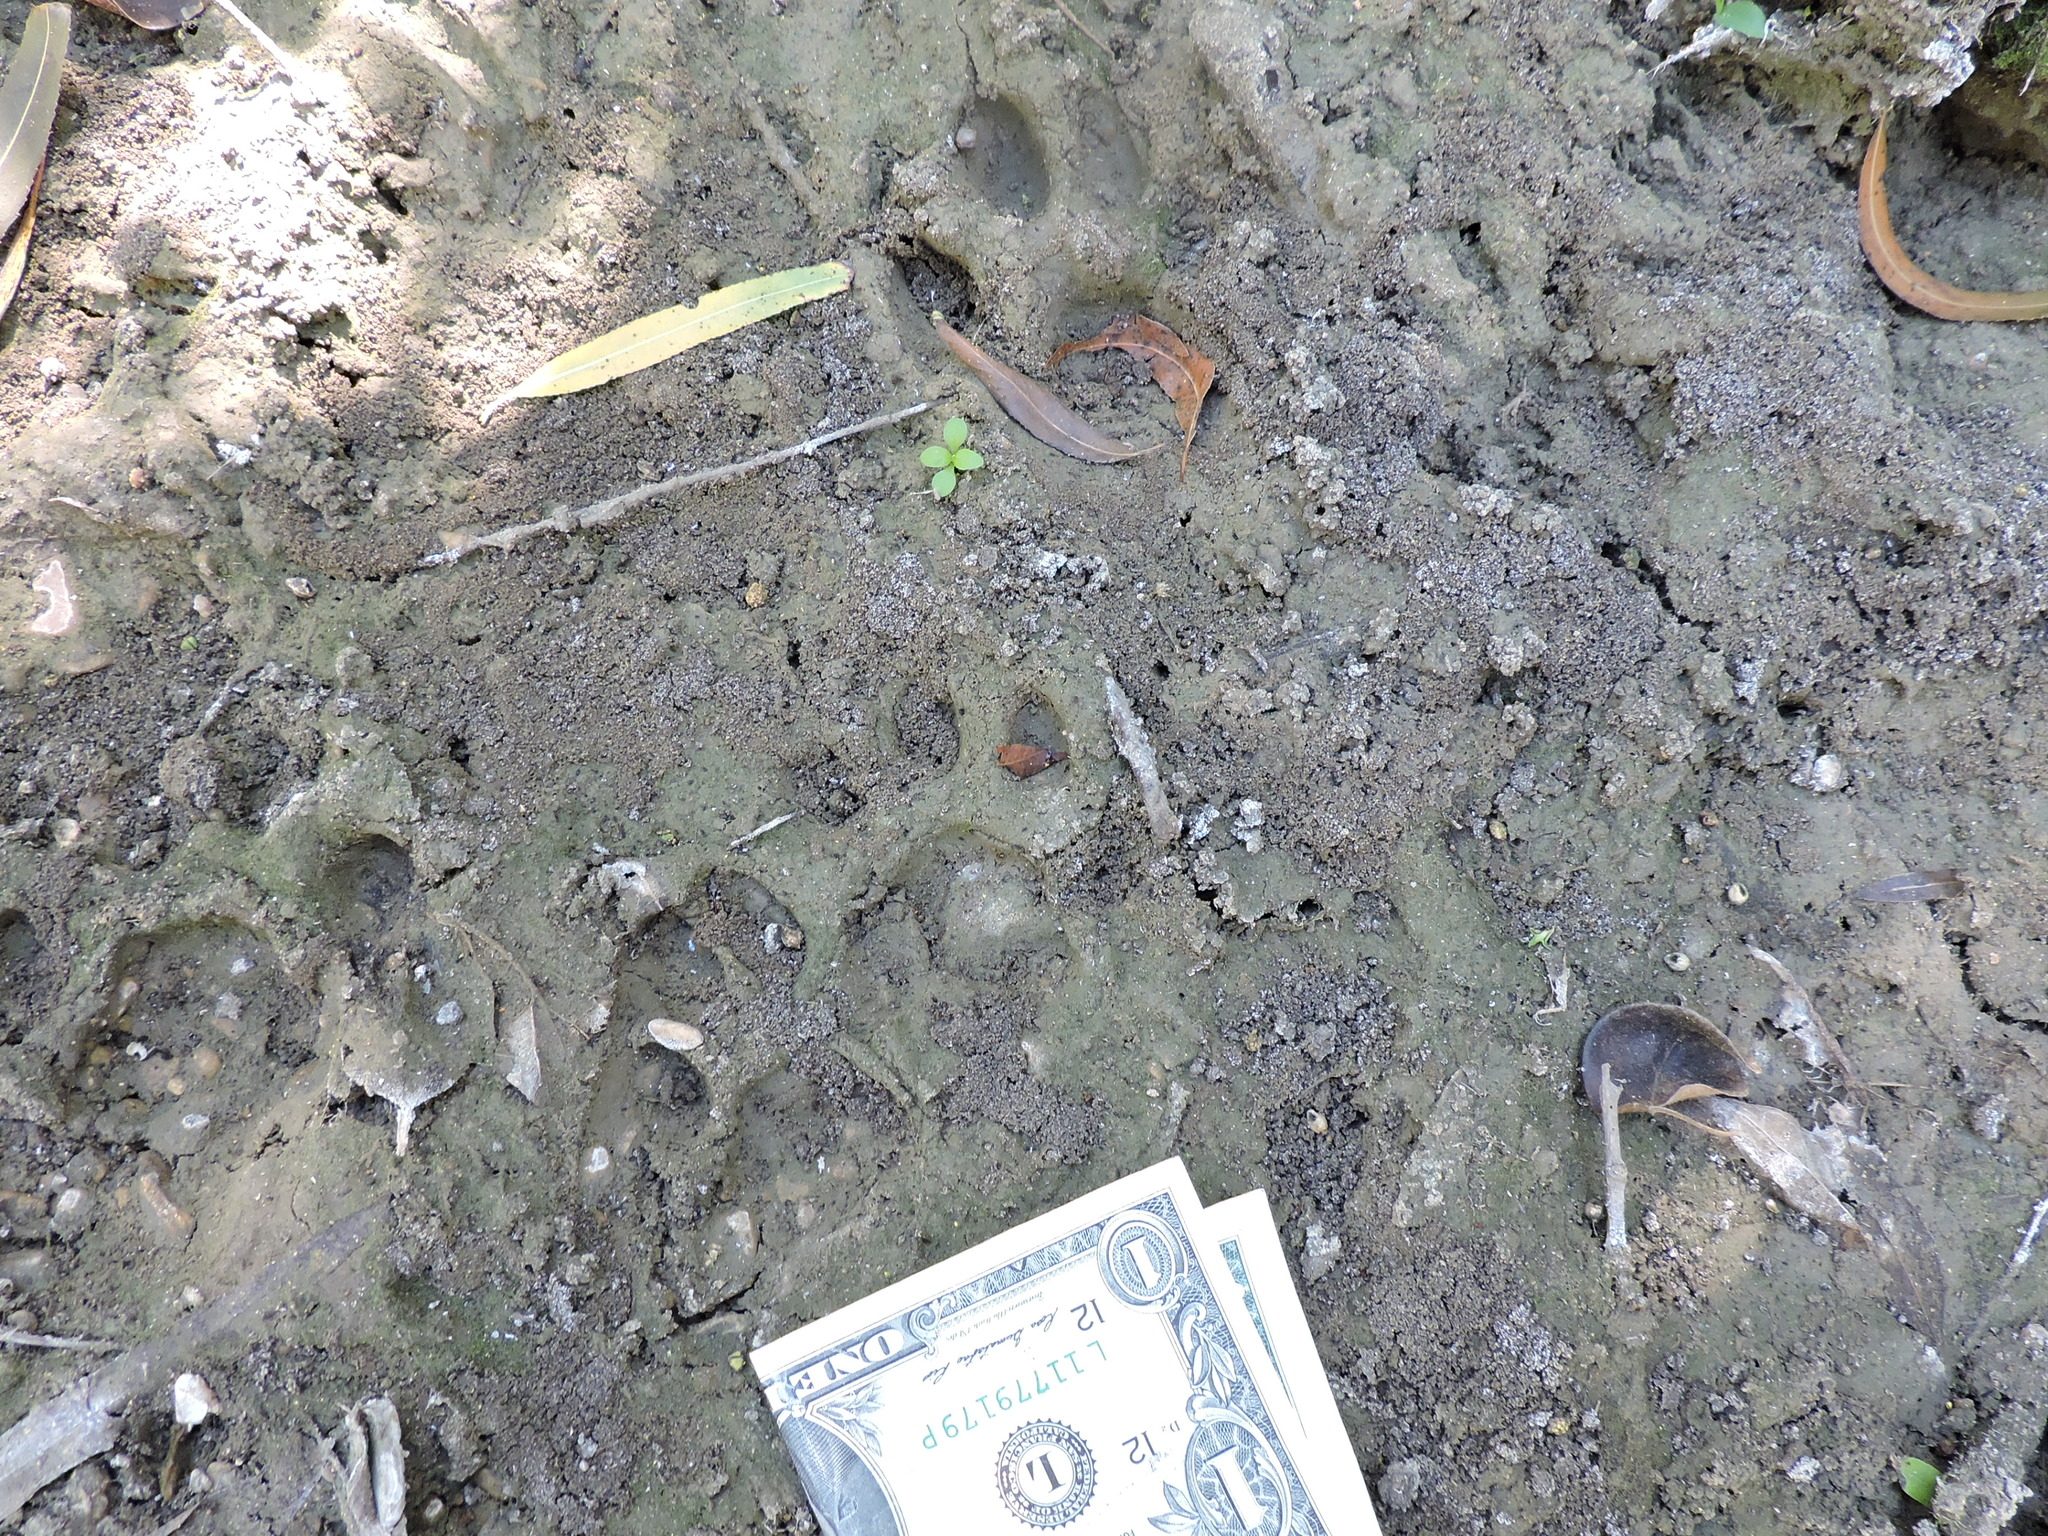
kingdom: Animalia
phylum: Chordata
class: Mammalia
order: Carnivora
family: Felidae
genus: Lynx
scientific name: Lynx rufus
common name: Bobcat
